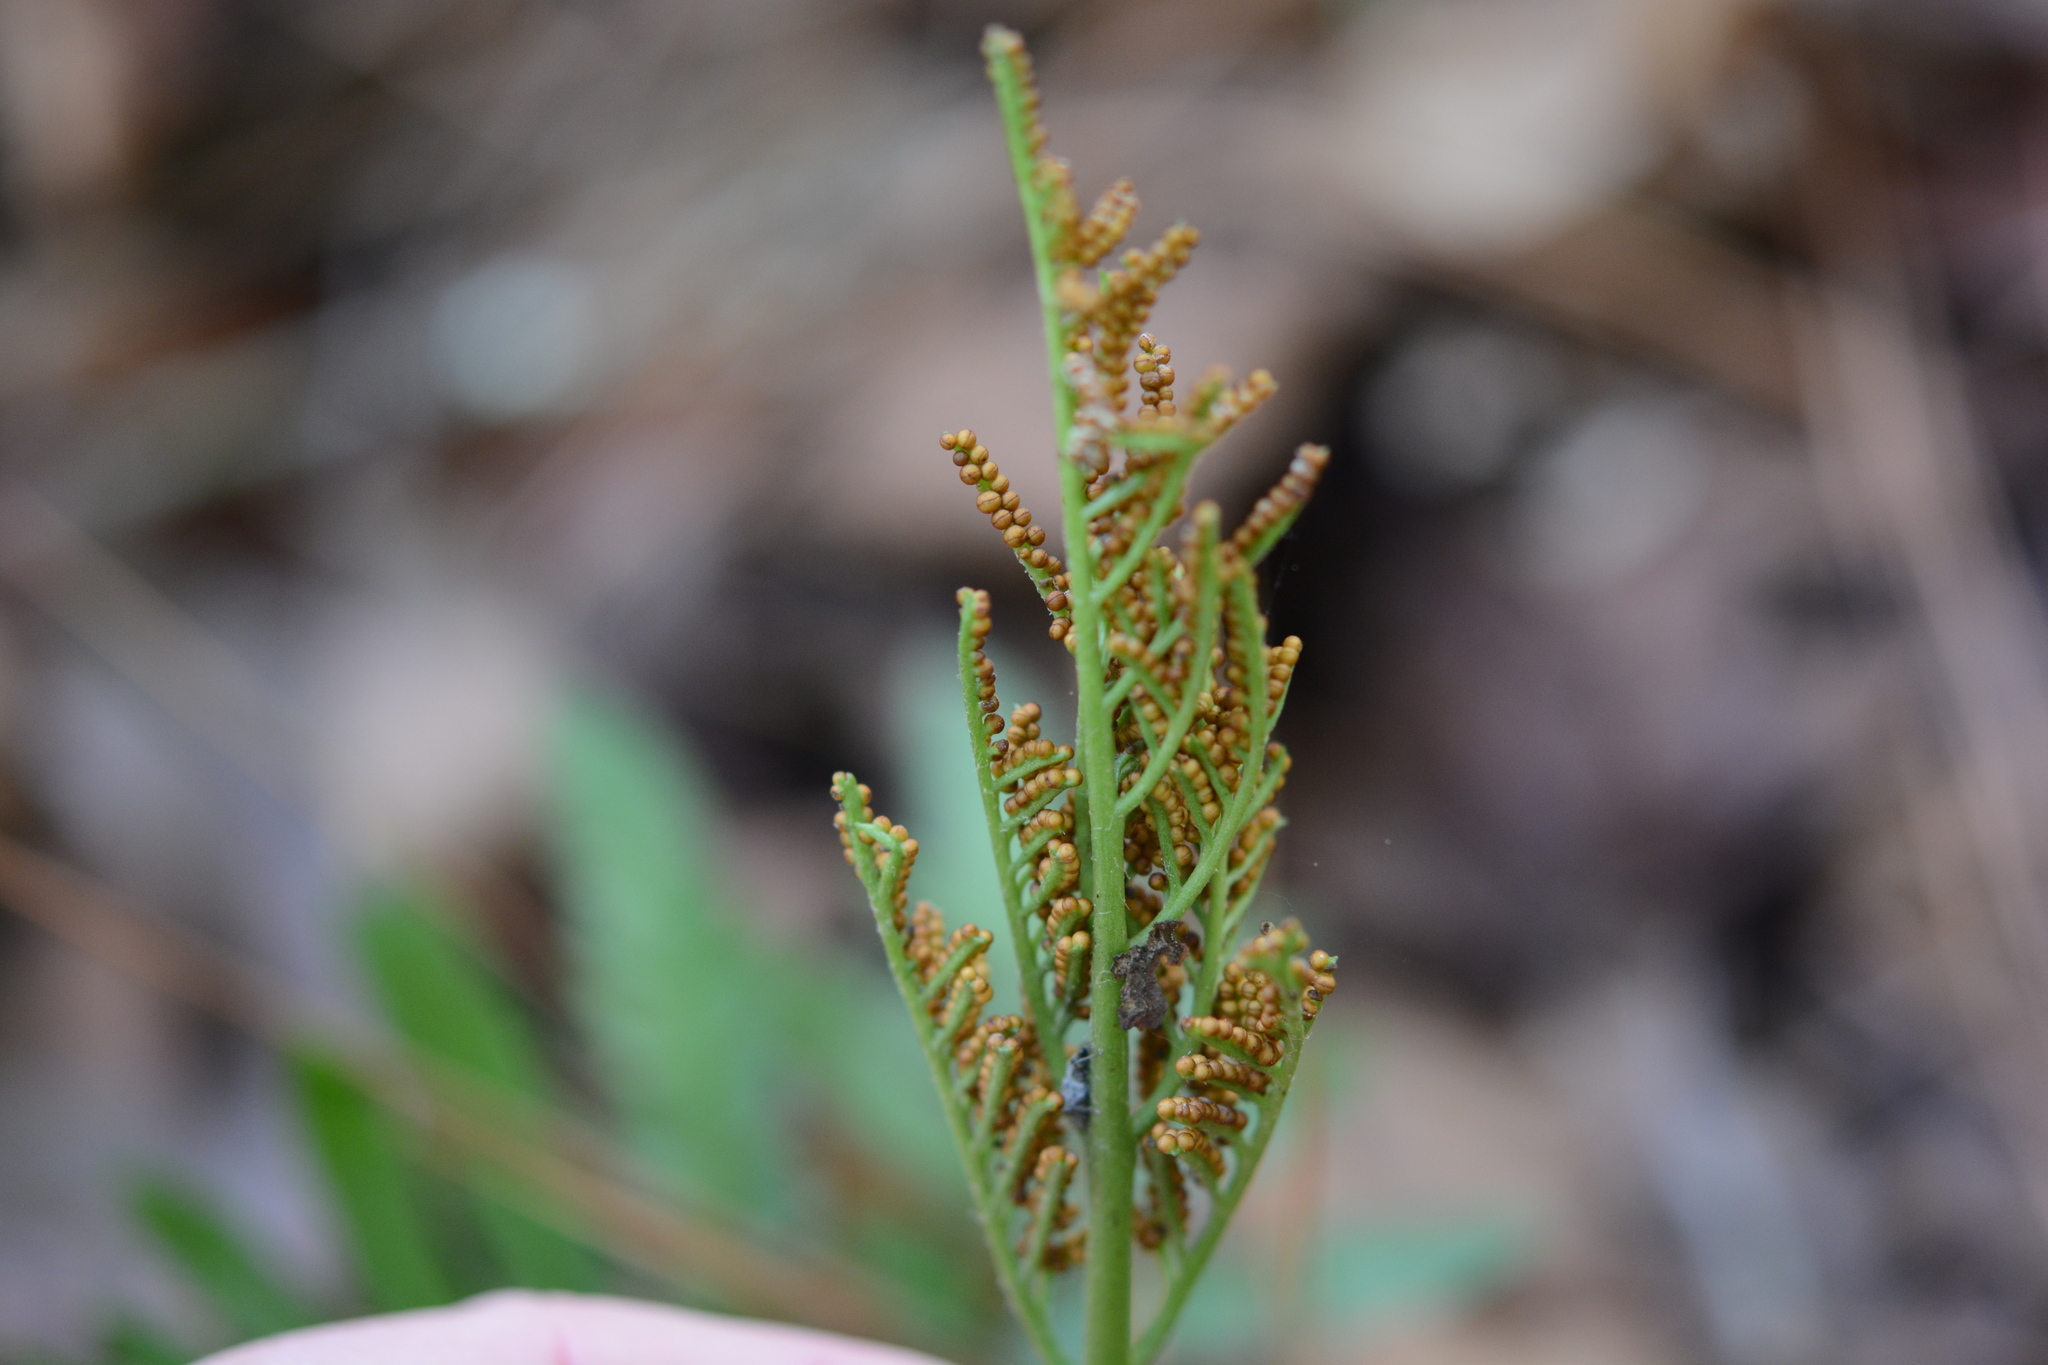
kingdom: Plantae
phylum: Tracheophyta
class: Polypodiopsida
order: Ophioglossales
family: Ophioglossaceae
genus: Sceptridium
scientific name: Sceptridium biternatum
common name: Sparse-lobed grapefern
